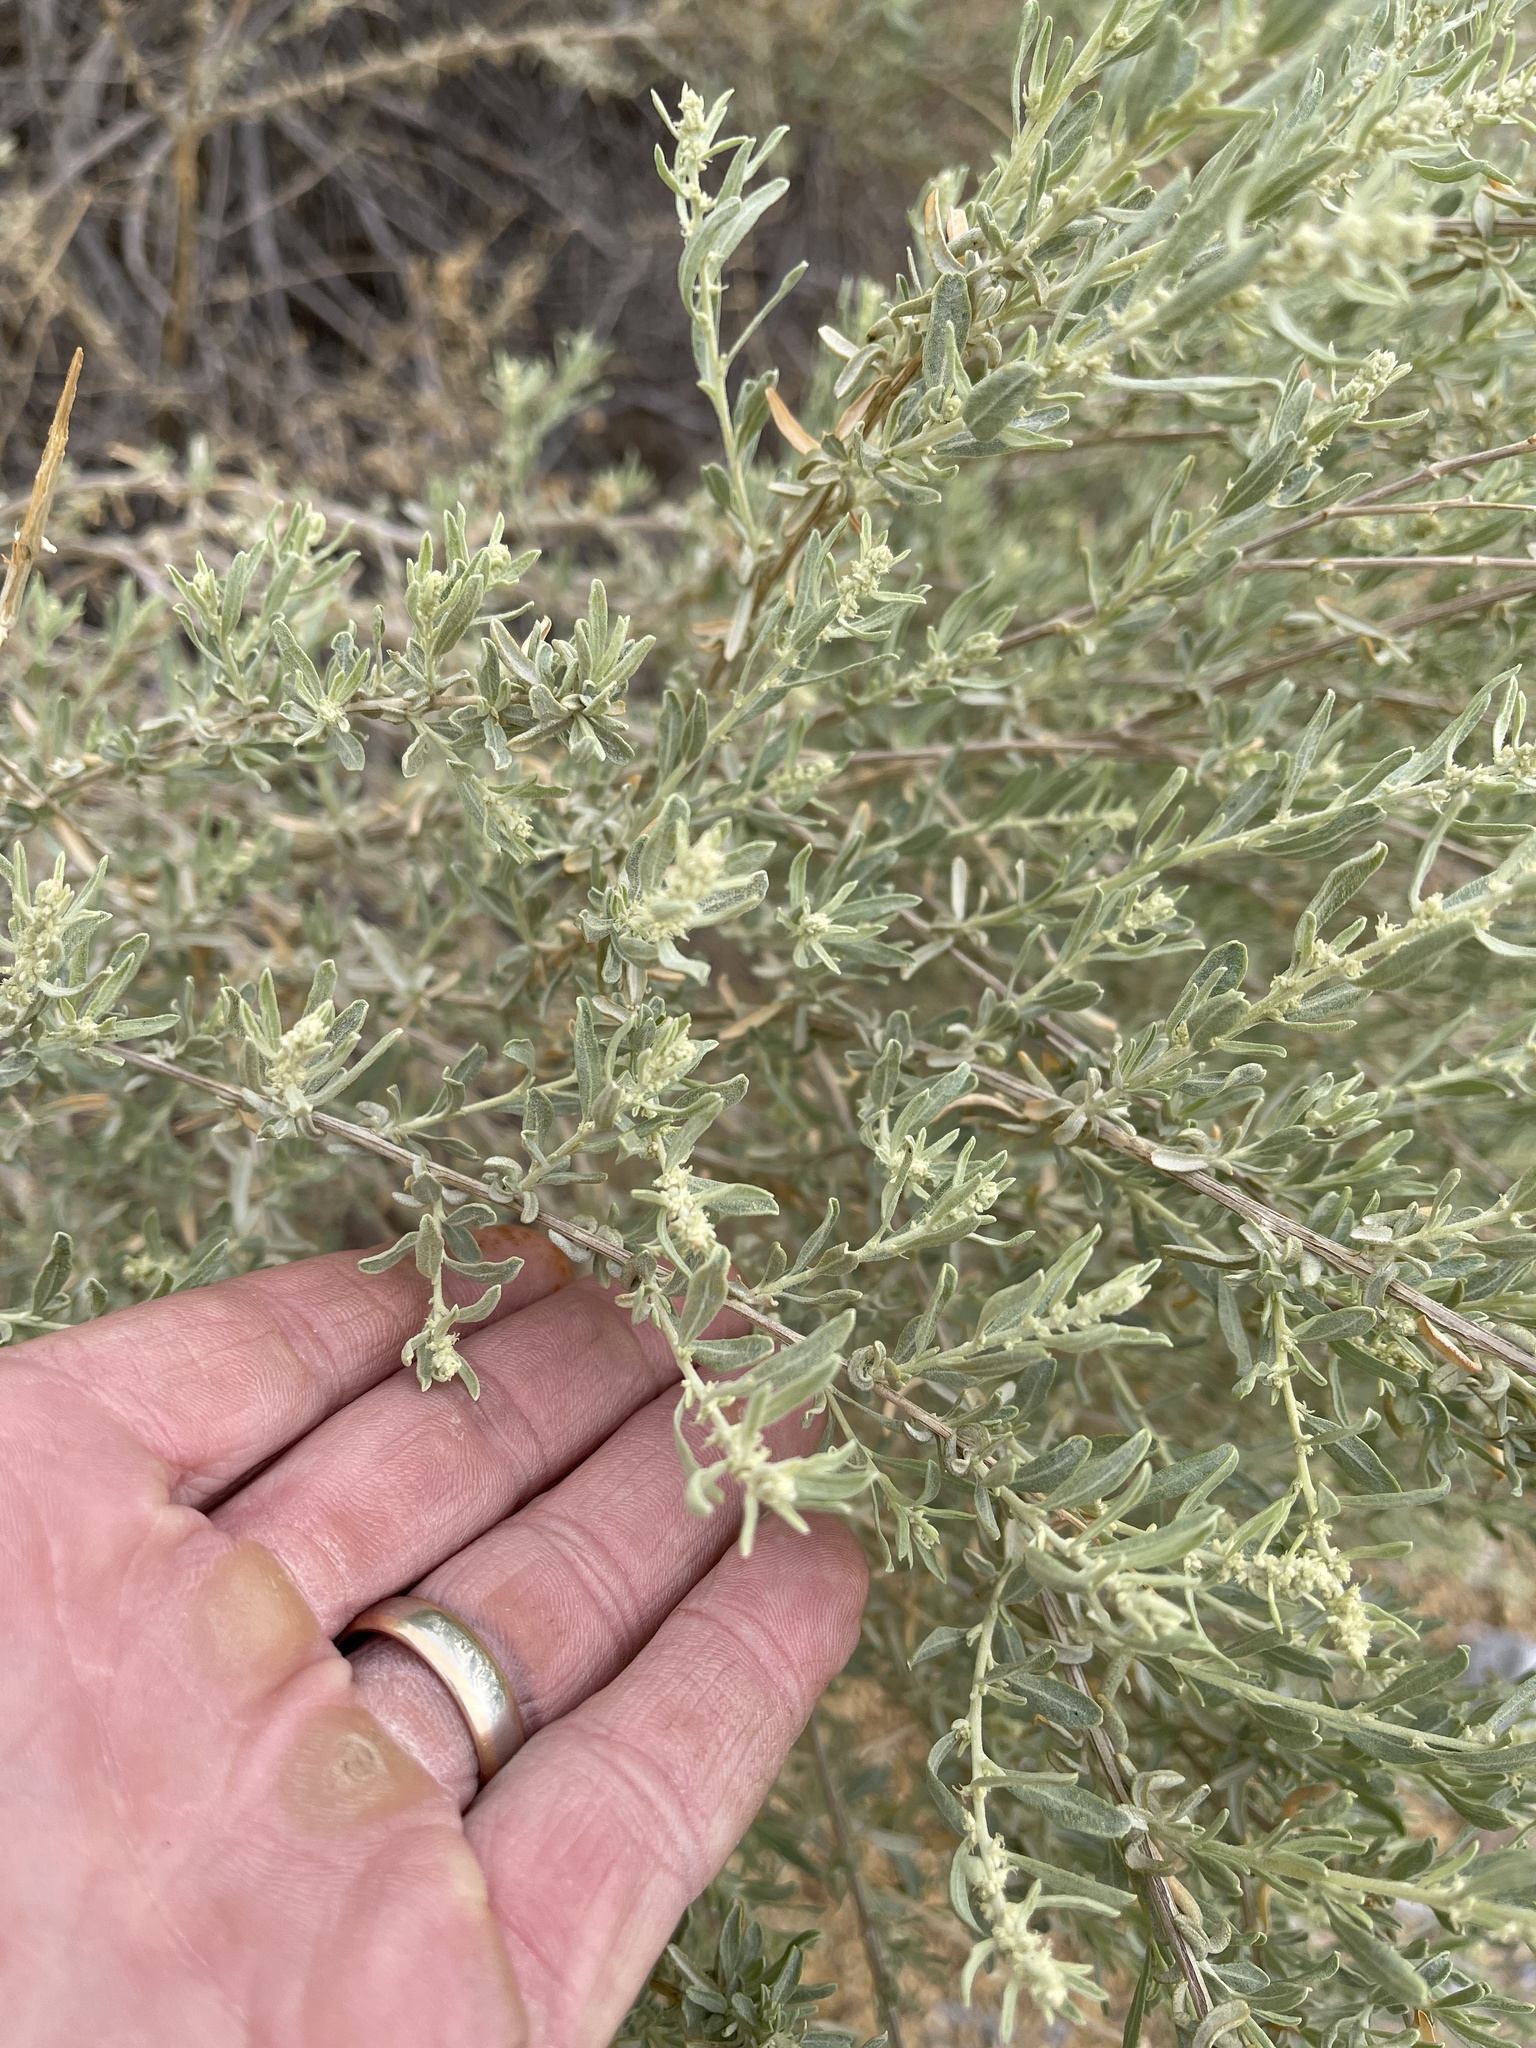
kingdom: Plantae
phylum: Tracheophyta
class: Magnoliopsida
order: Caryophyllales
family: Amaranthaceae
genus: Atriplex
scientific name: Atriplex canescens
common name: Four-wing saltbush
